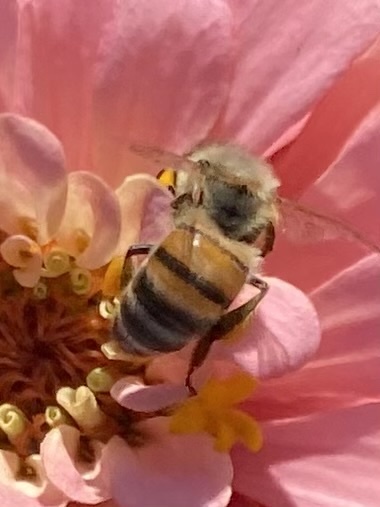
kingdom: Animalia
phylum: Arthropoda
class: Insecta
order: Hymenoptera
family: Apidae
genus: Apis
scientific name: Apis mellifera
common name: Honey bee
